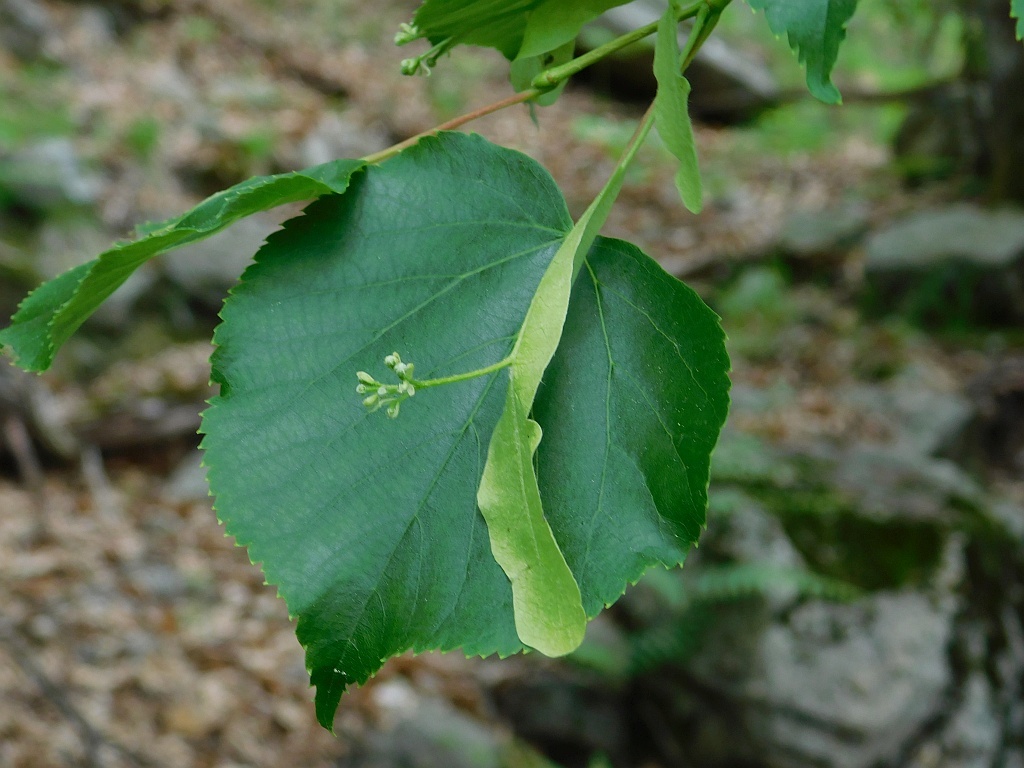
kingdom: Plantae
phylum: Tracheophyta
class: Magnoliopsida
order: Malvales
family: Malvaceae
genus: Tilia
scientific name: Tilia cordata
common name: Small-leaved lime
